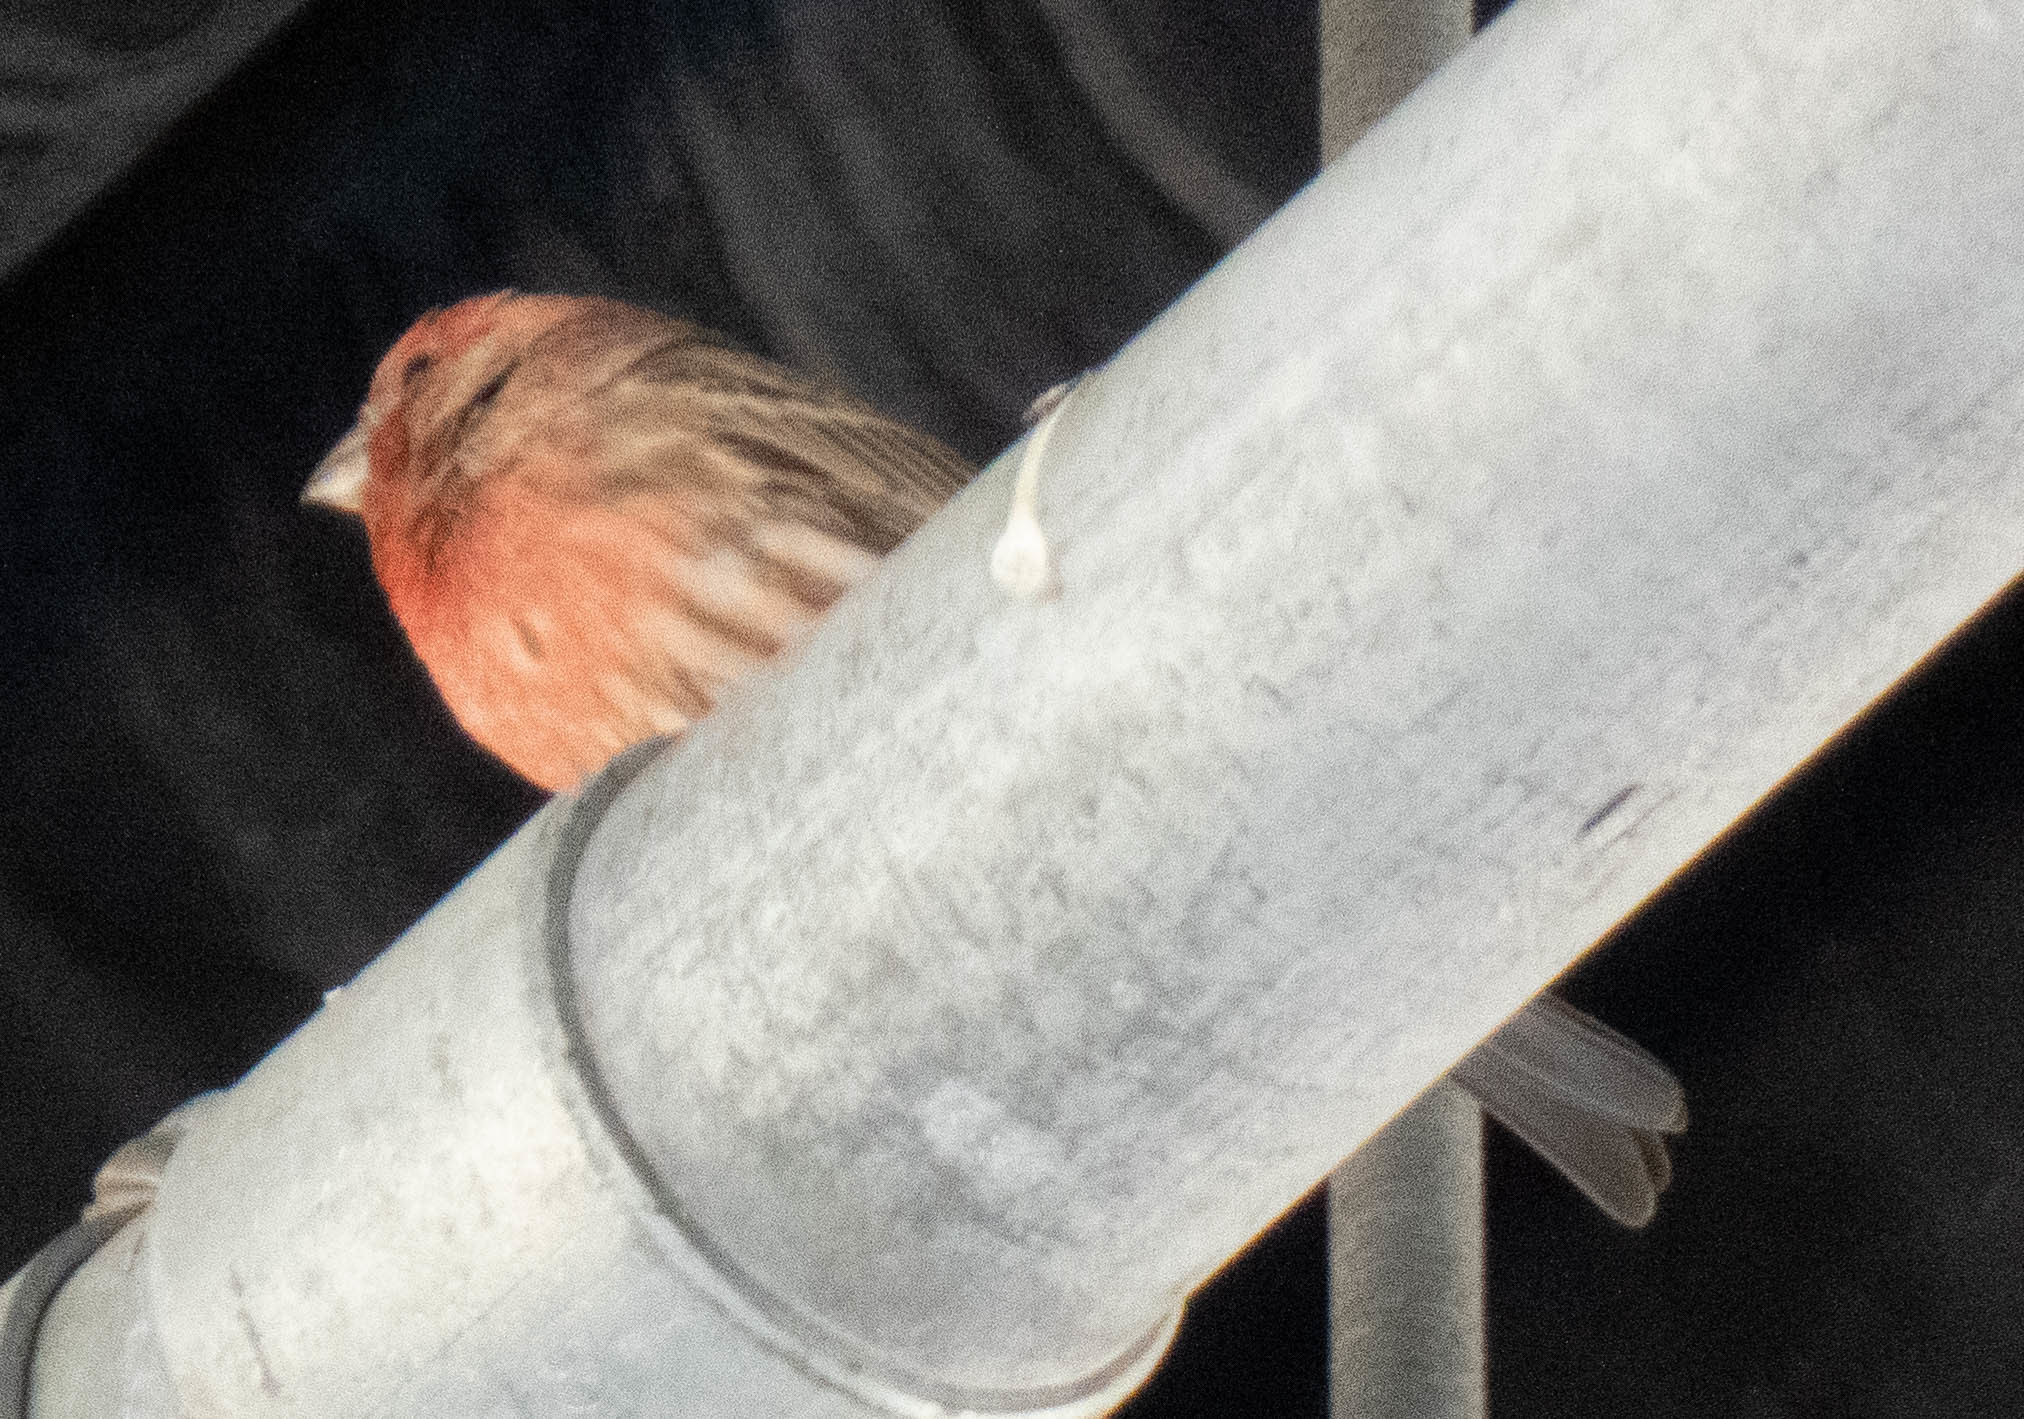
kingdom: Animalia
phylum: Chordata
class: Aves
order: Passeriformes
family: Fringillidae
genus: Haemorhous
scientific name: Haemorhous mexicanus
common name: House finch
